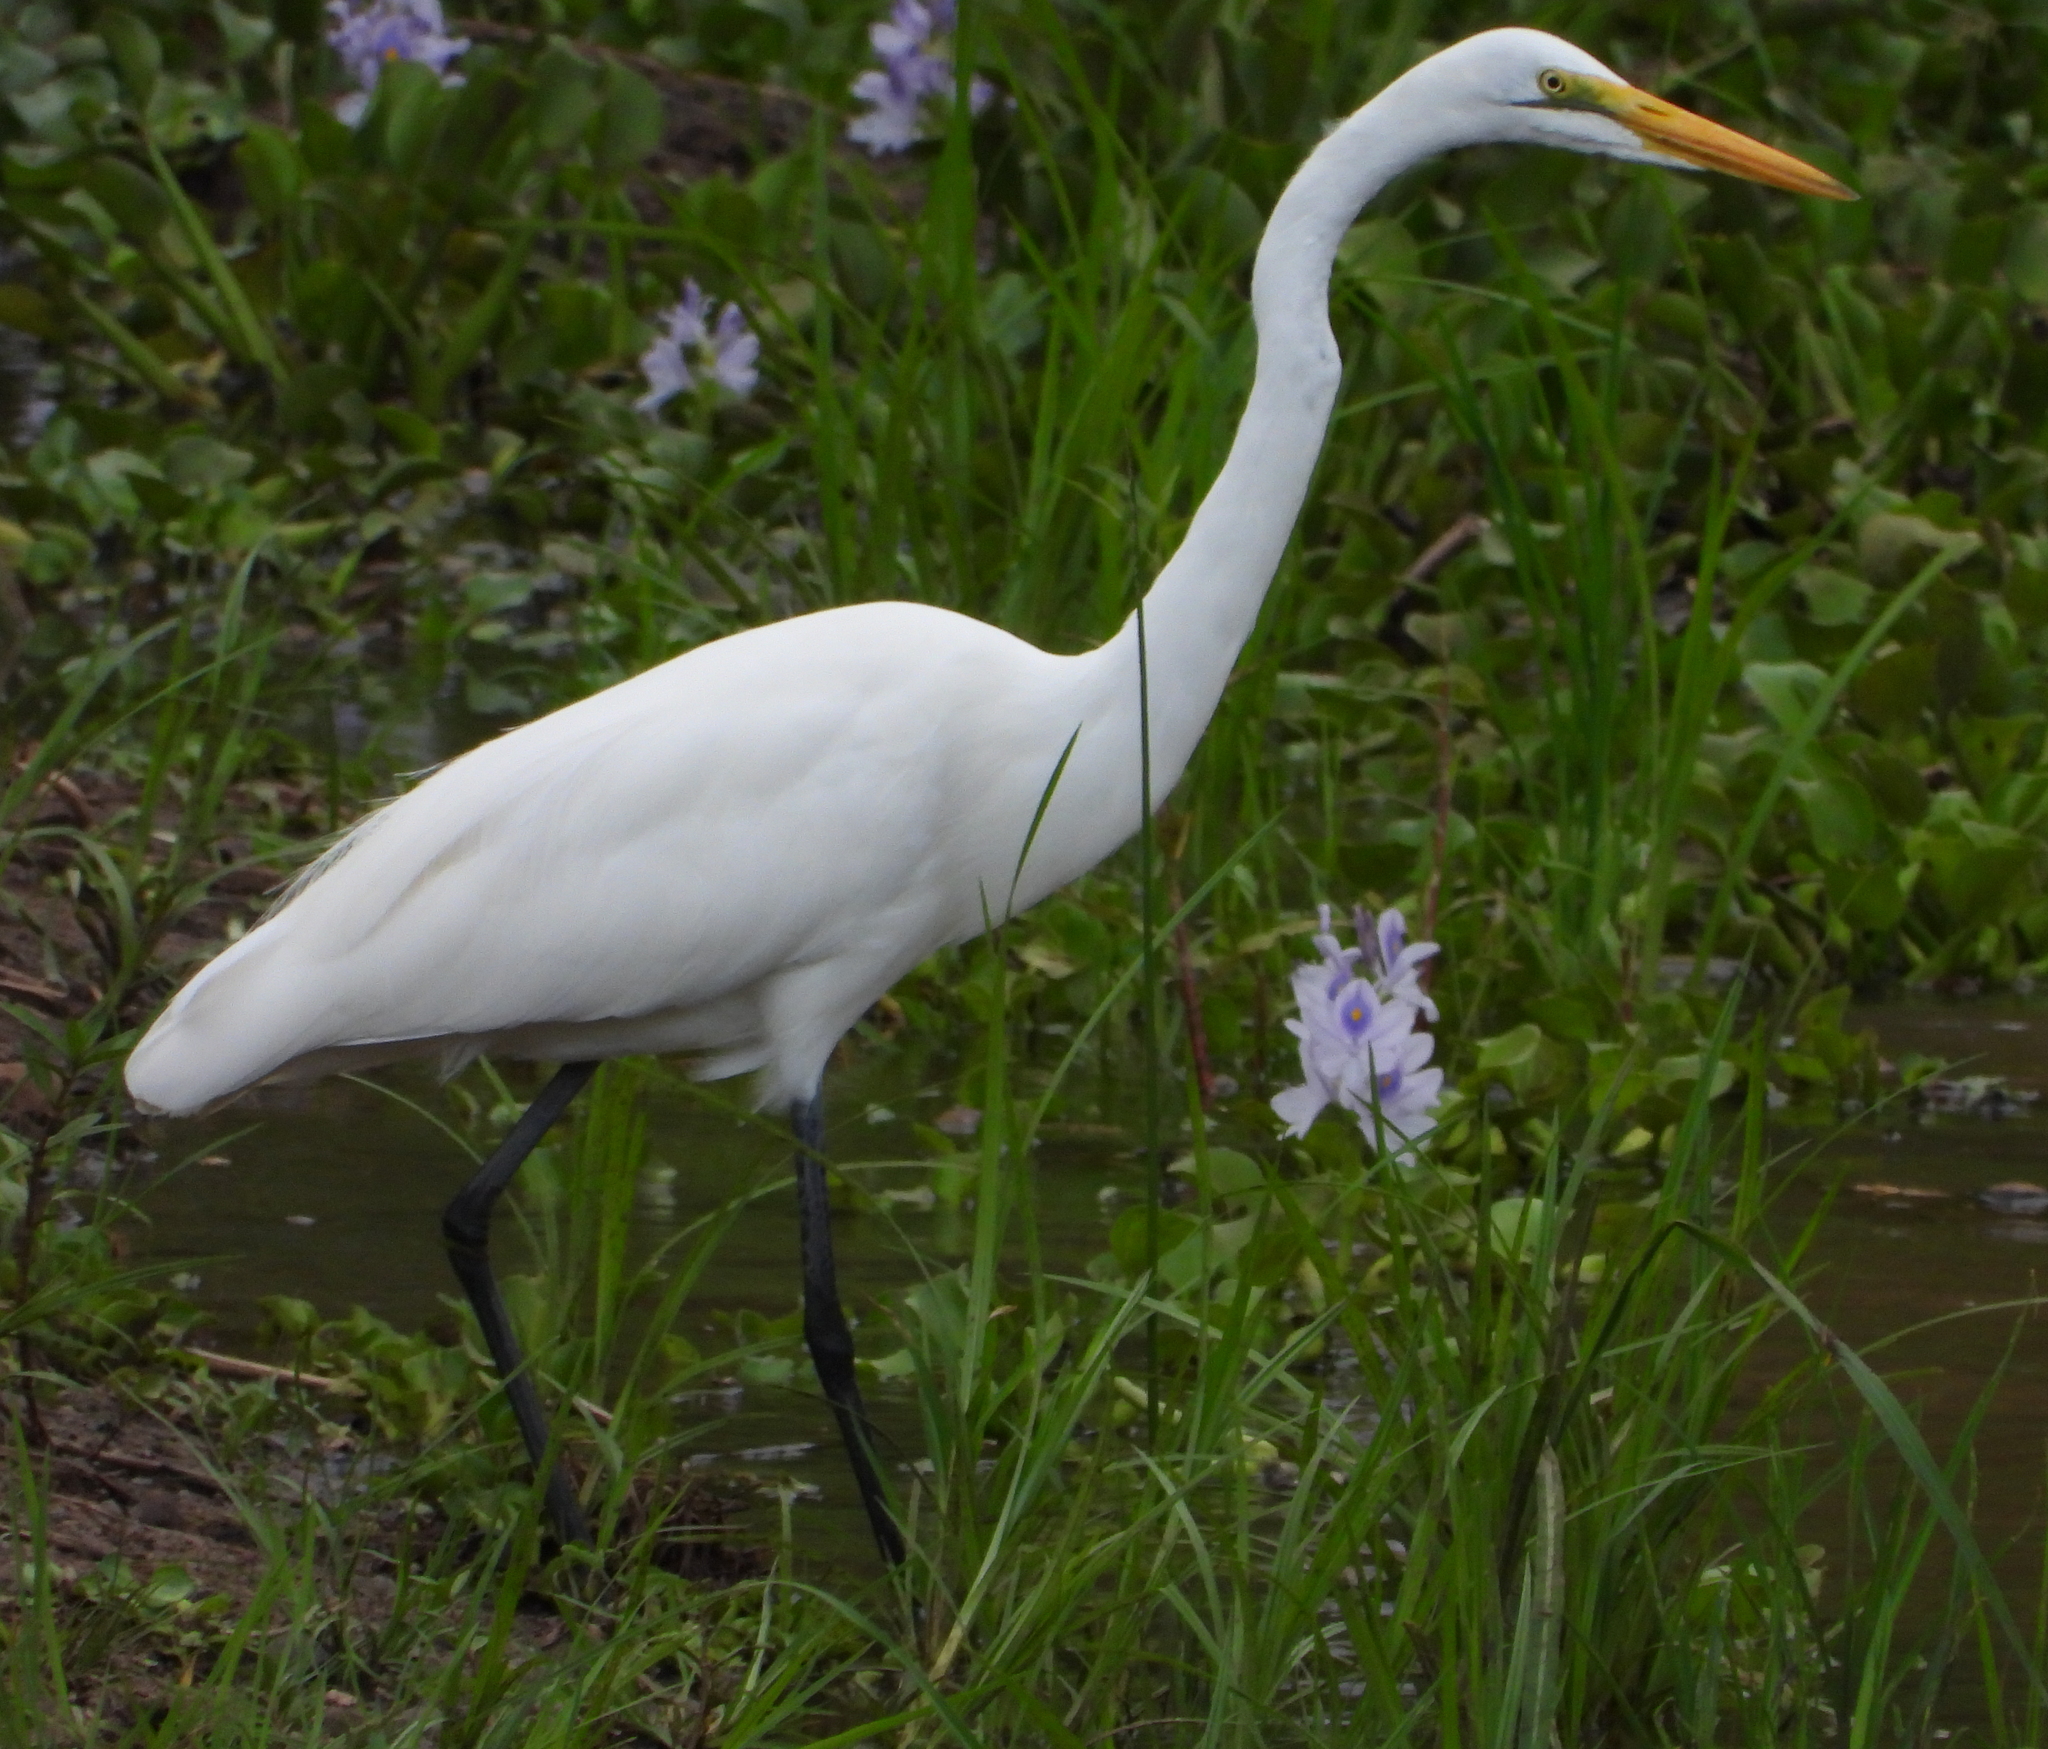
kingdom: Animalia
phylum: Chordata
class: Aves
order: Pelecaniformes
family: Ardeidae
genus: Ardea
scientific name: Ardea alba
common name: Great egret
